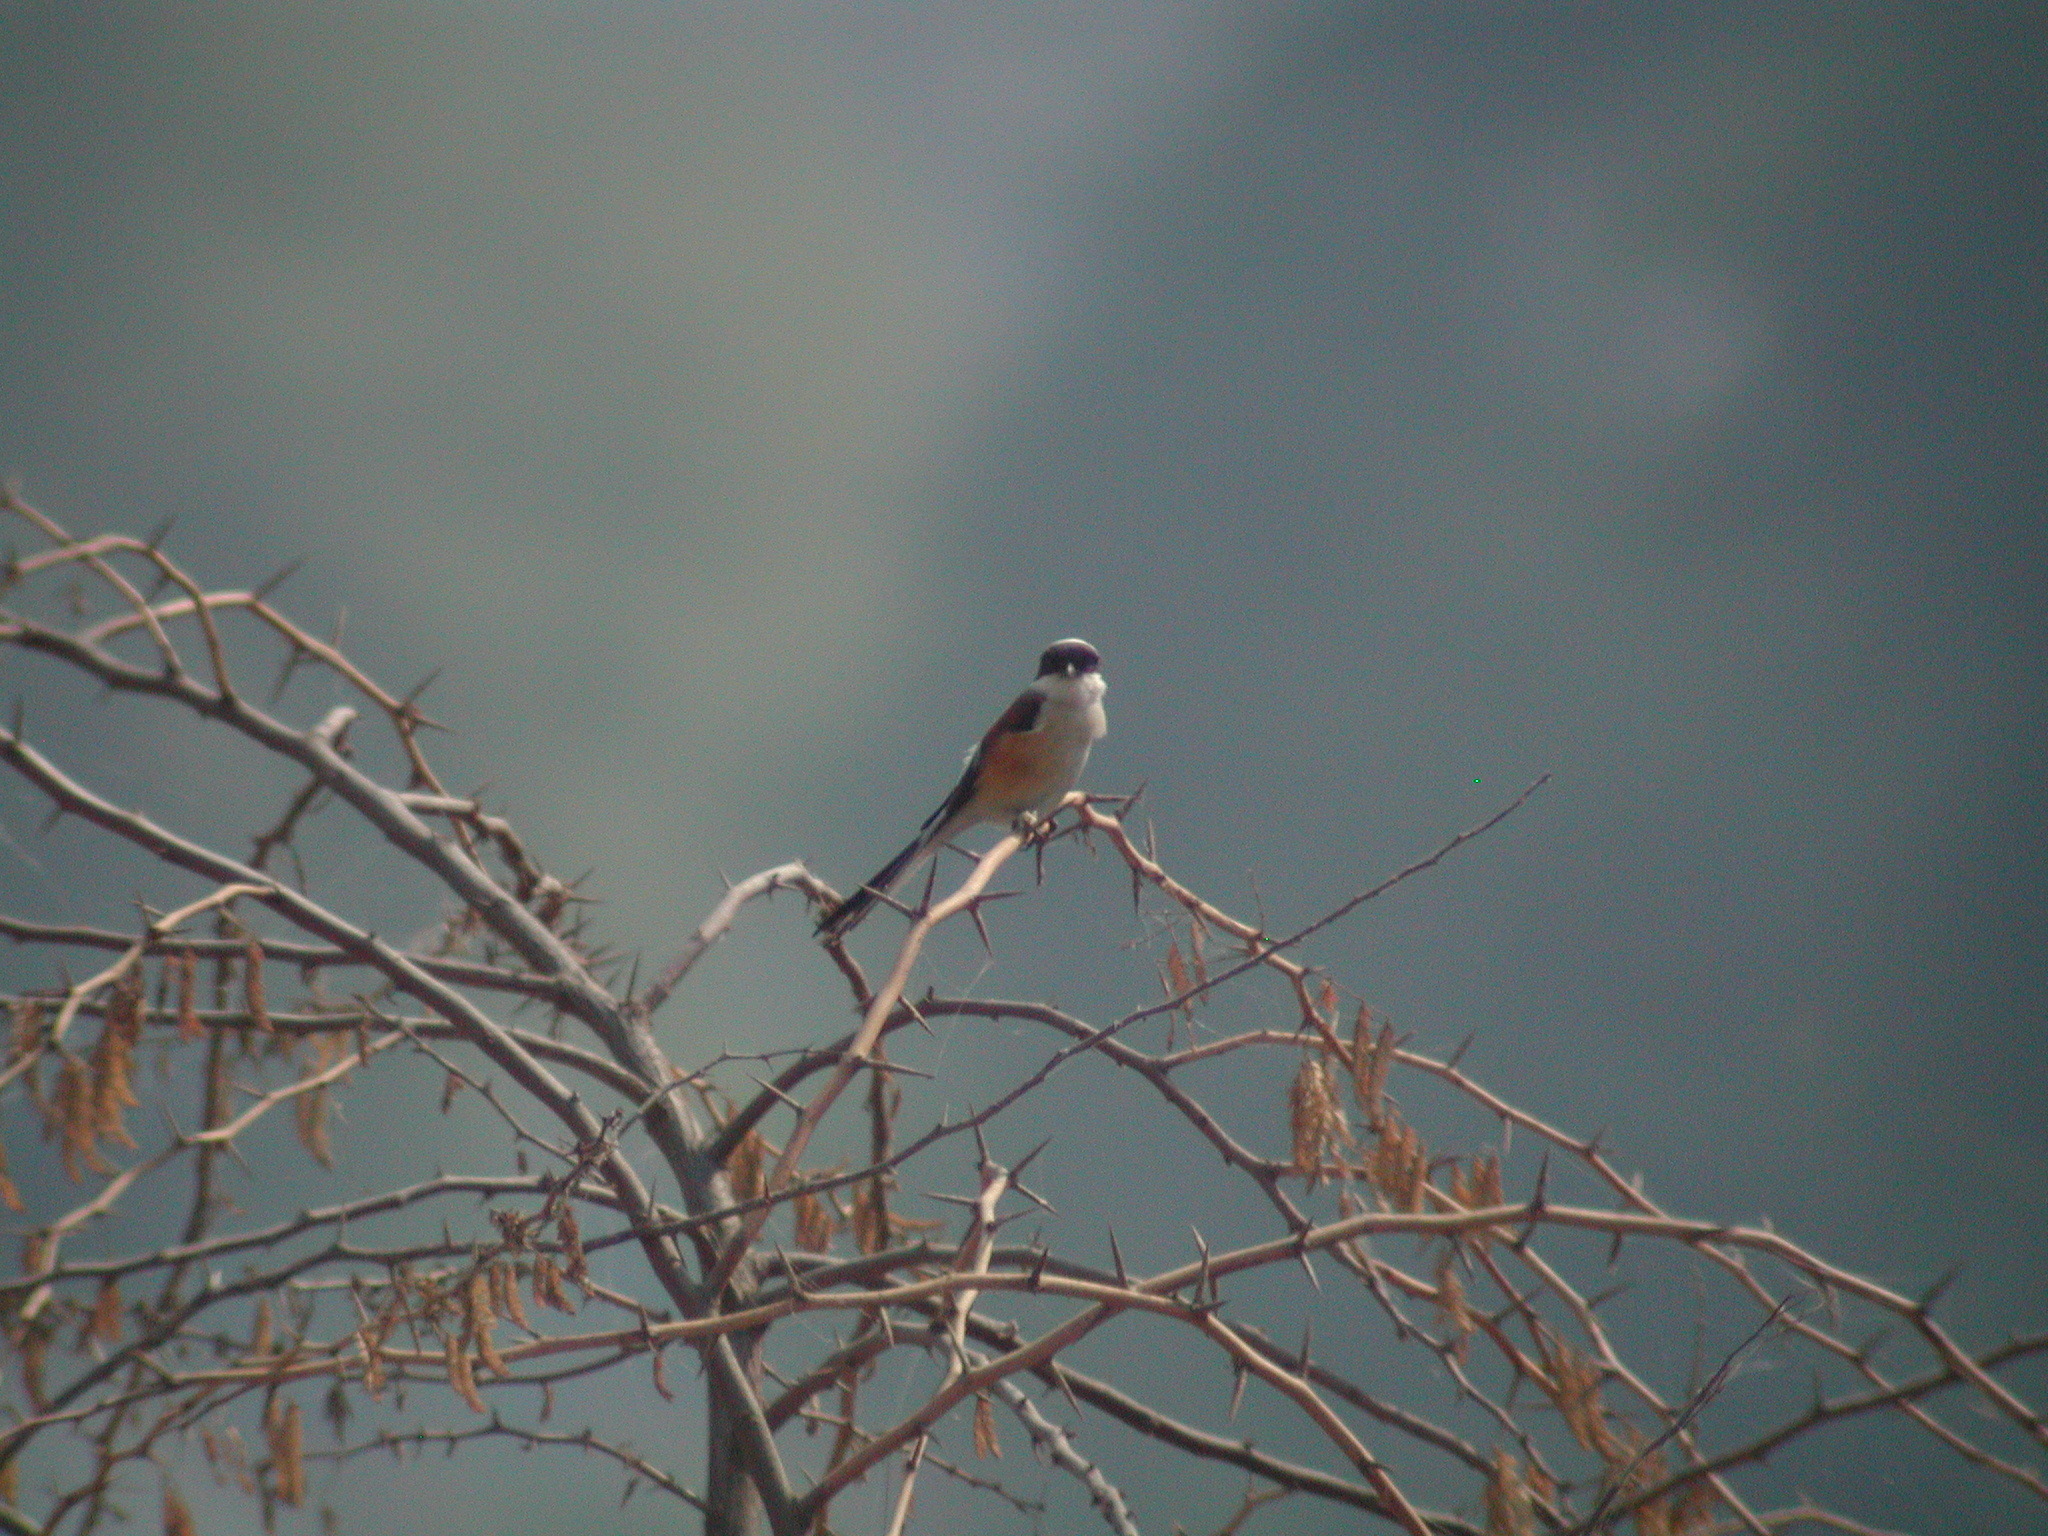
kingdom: Animalia
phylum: Chordata
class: Aves
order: Passeriformes
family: Laniidae
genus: Lanius
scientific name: Lanius vittatus
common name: Bay-backed shrike
